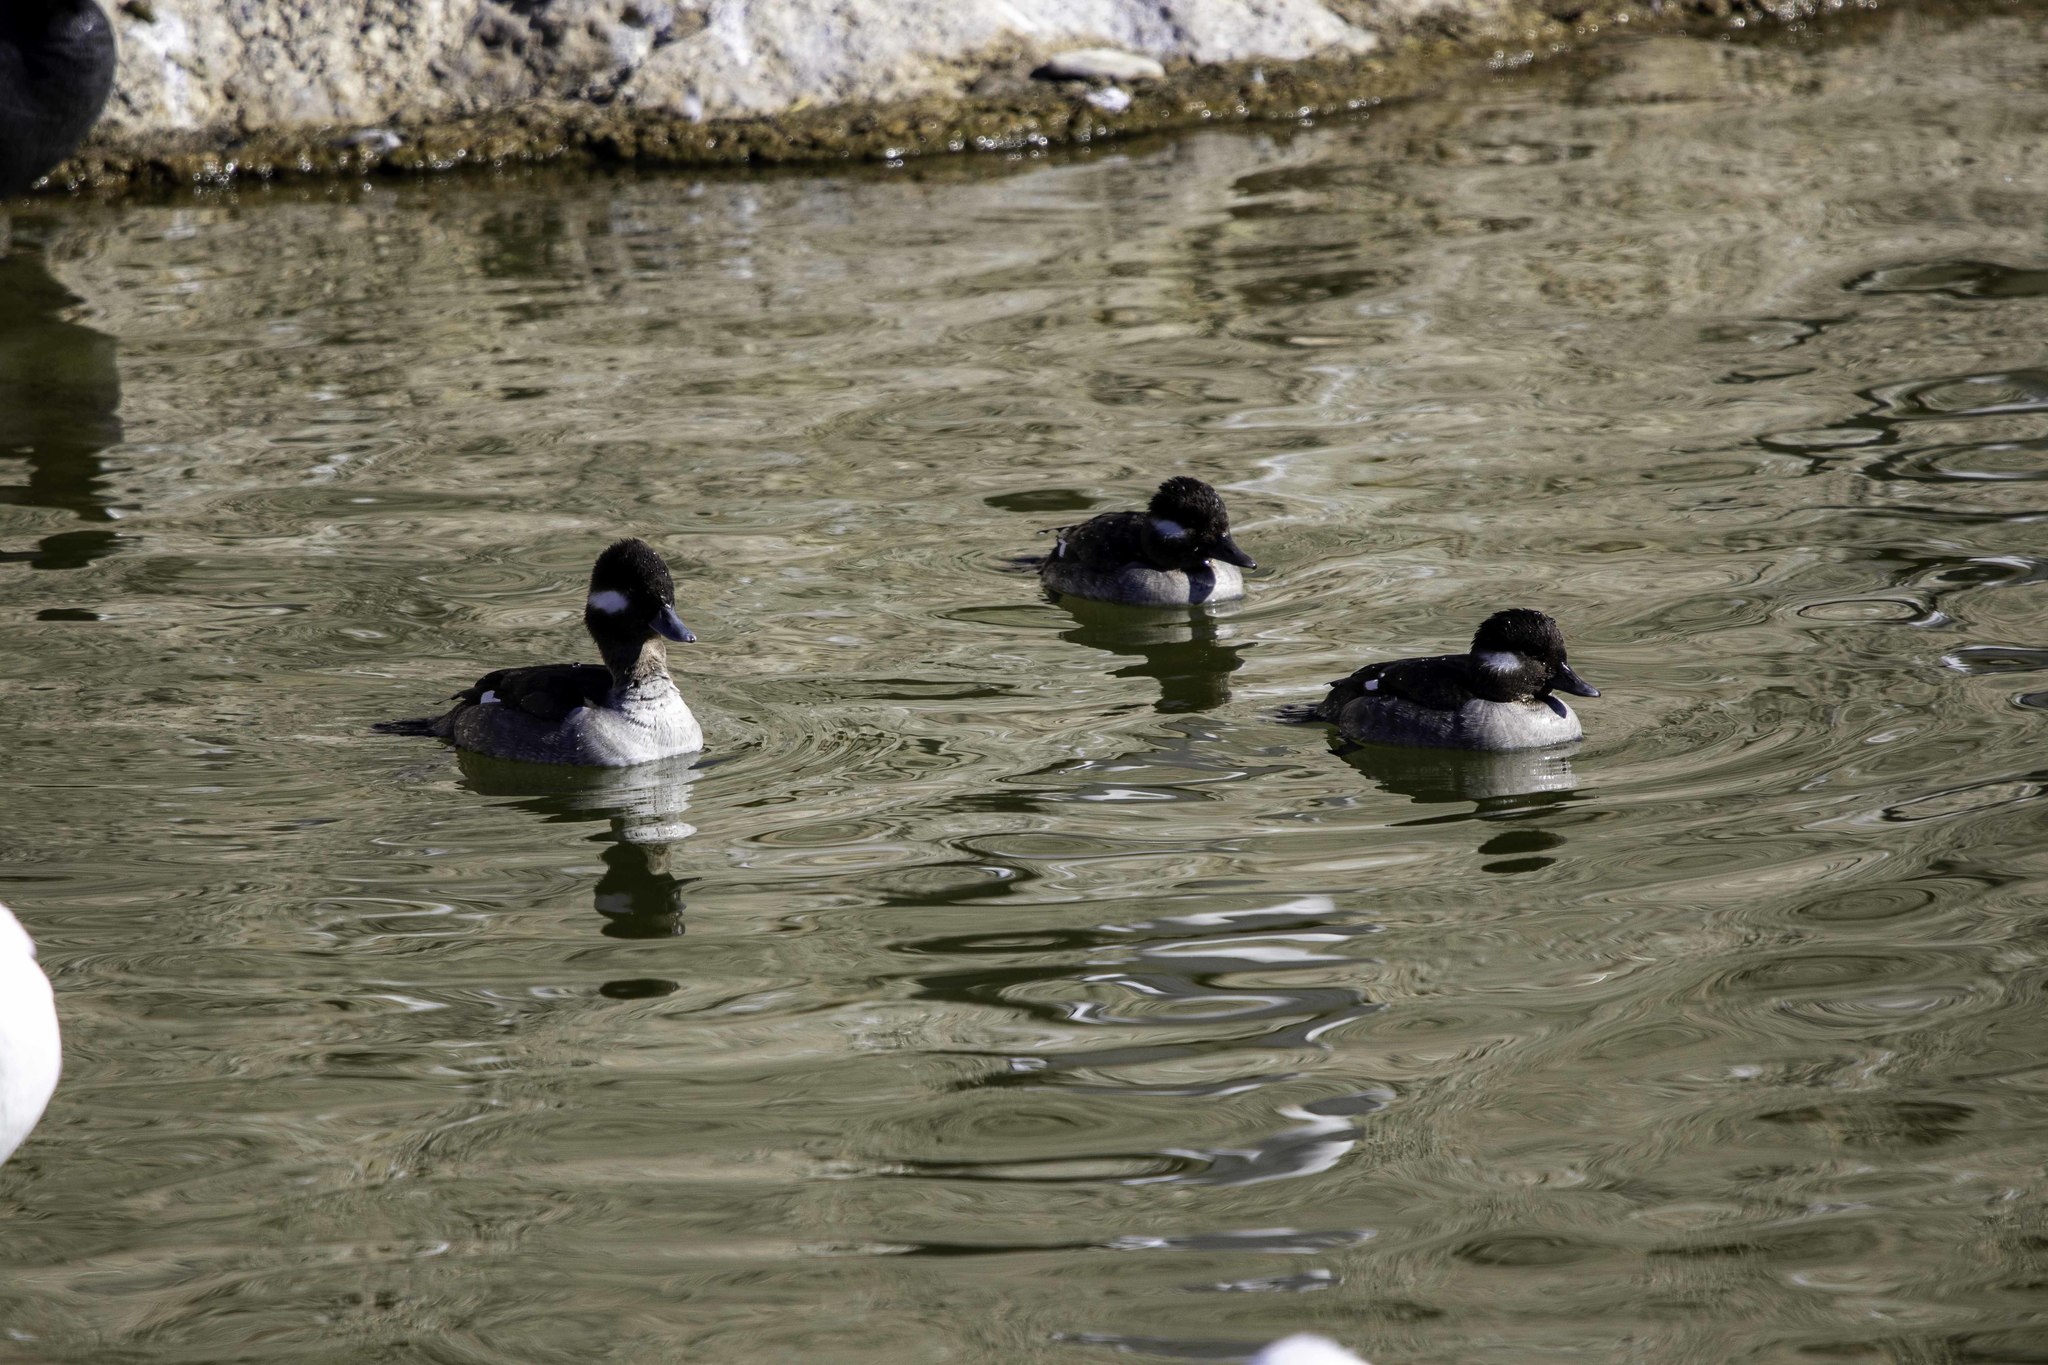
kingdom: Animalia
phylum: Chordata
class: Aves
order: Anseriformes
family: Anatidae
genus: Bucephala
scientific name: Bucephala albeola
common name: Bufflehead
